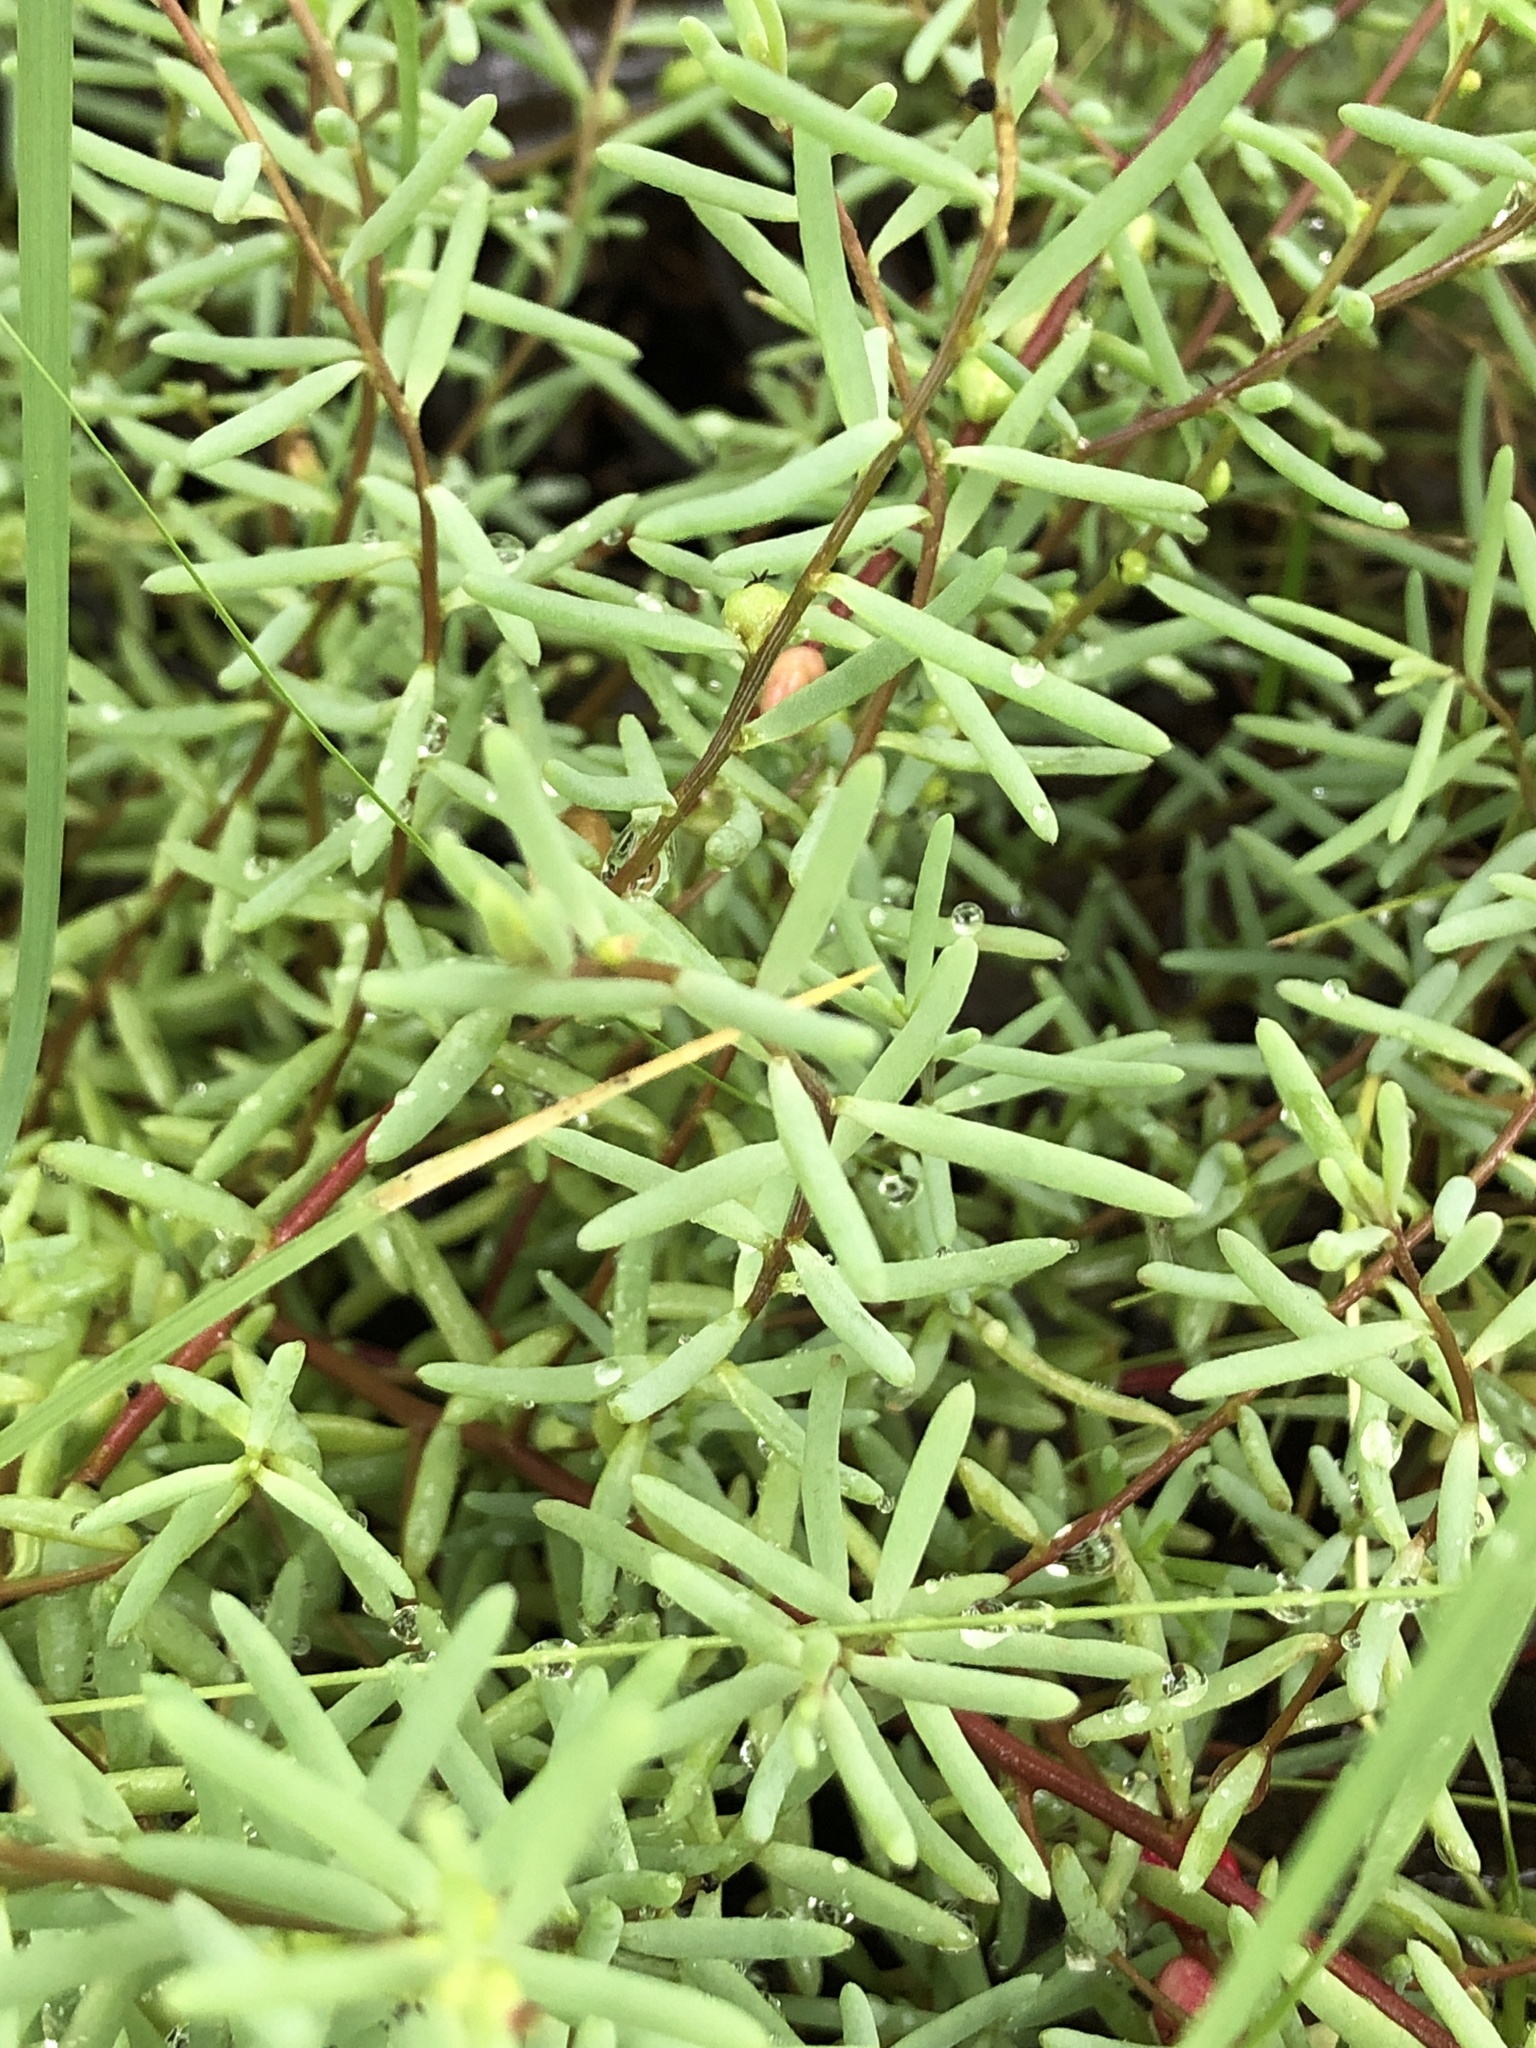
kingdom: Plantae
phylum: Tracheophyta
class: Magnoliopsida
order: Caryophyllales
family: Amaranthaceae
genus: Enchylaena
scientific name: Enchylaena tomentosa
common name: Ruby saltbush
